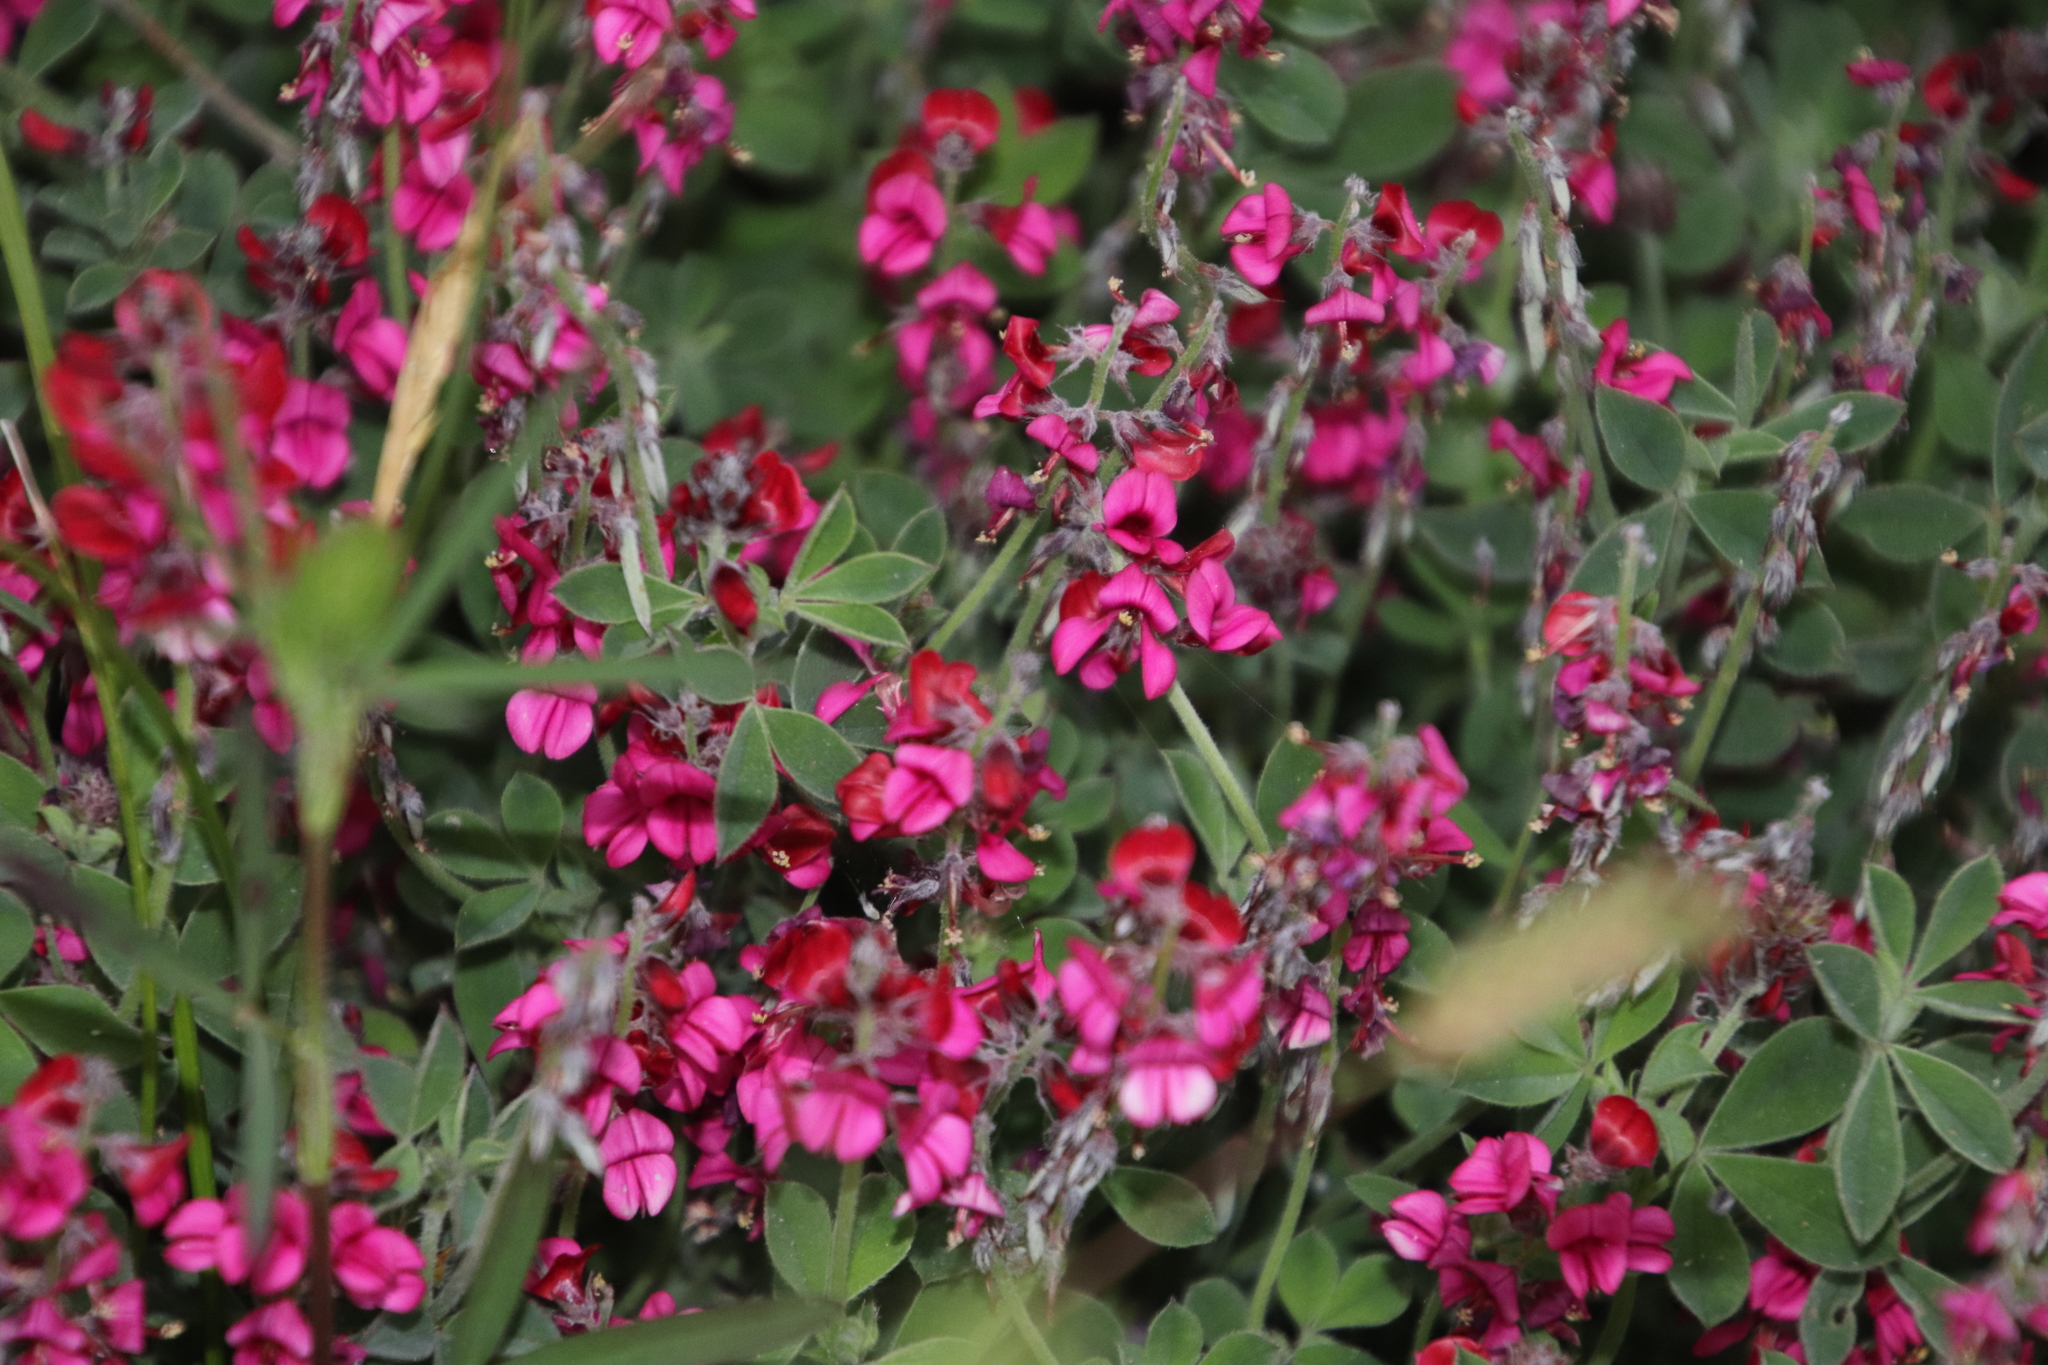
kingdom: Plantae
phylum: Tracheophyta
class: Magnoliopsida
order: Fabales
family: Fabaceae
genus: Indigofera
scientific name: Indigofera incana
